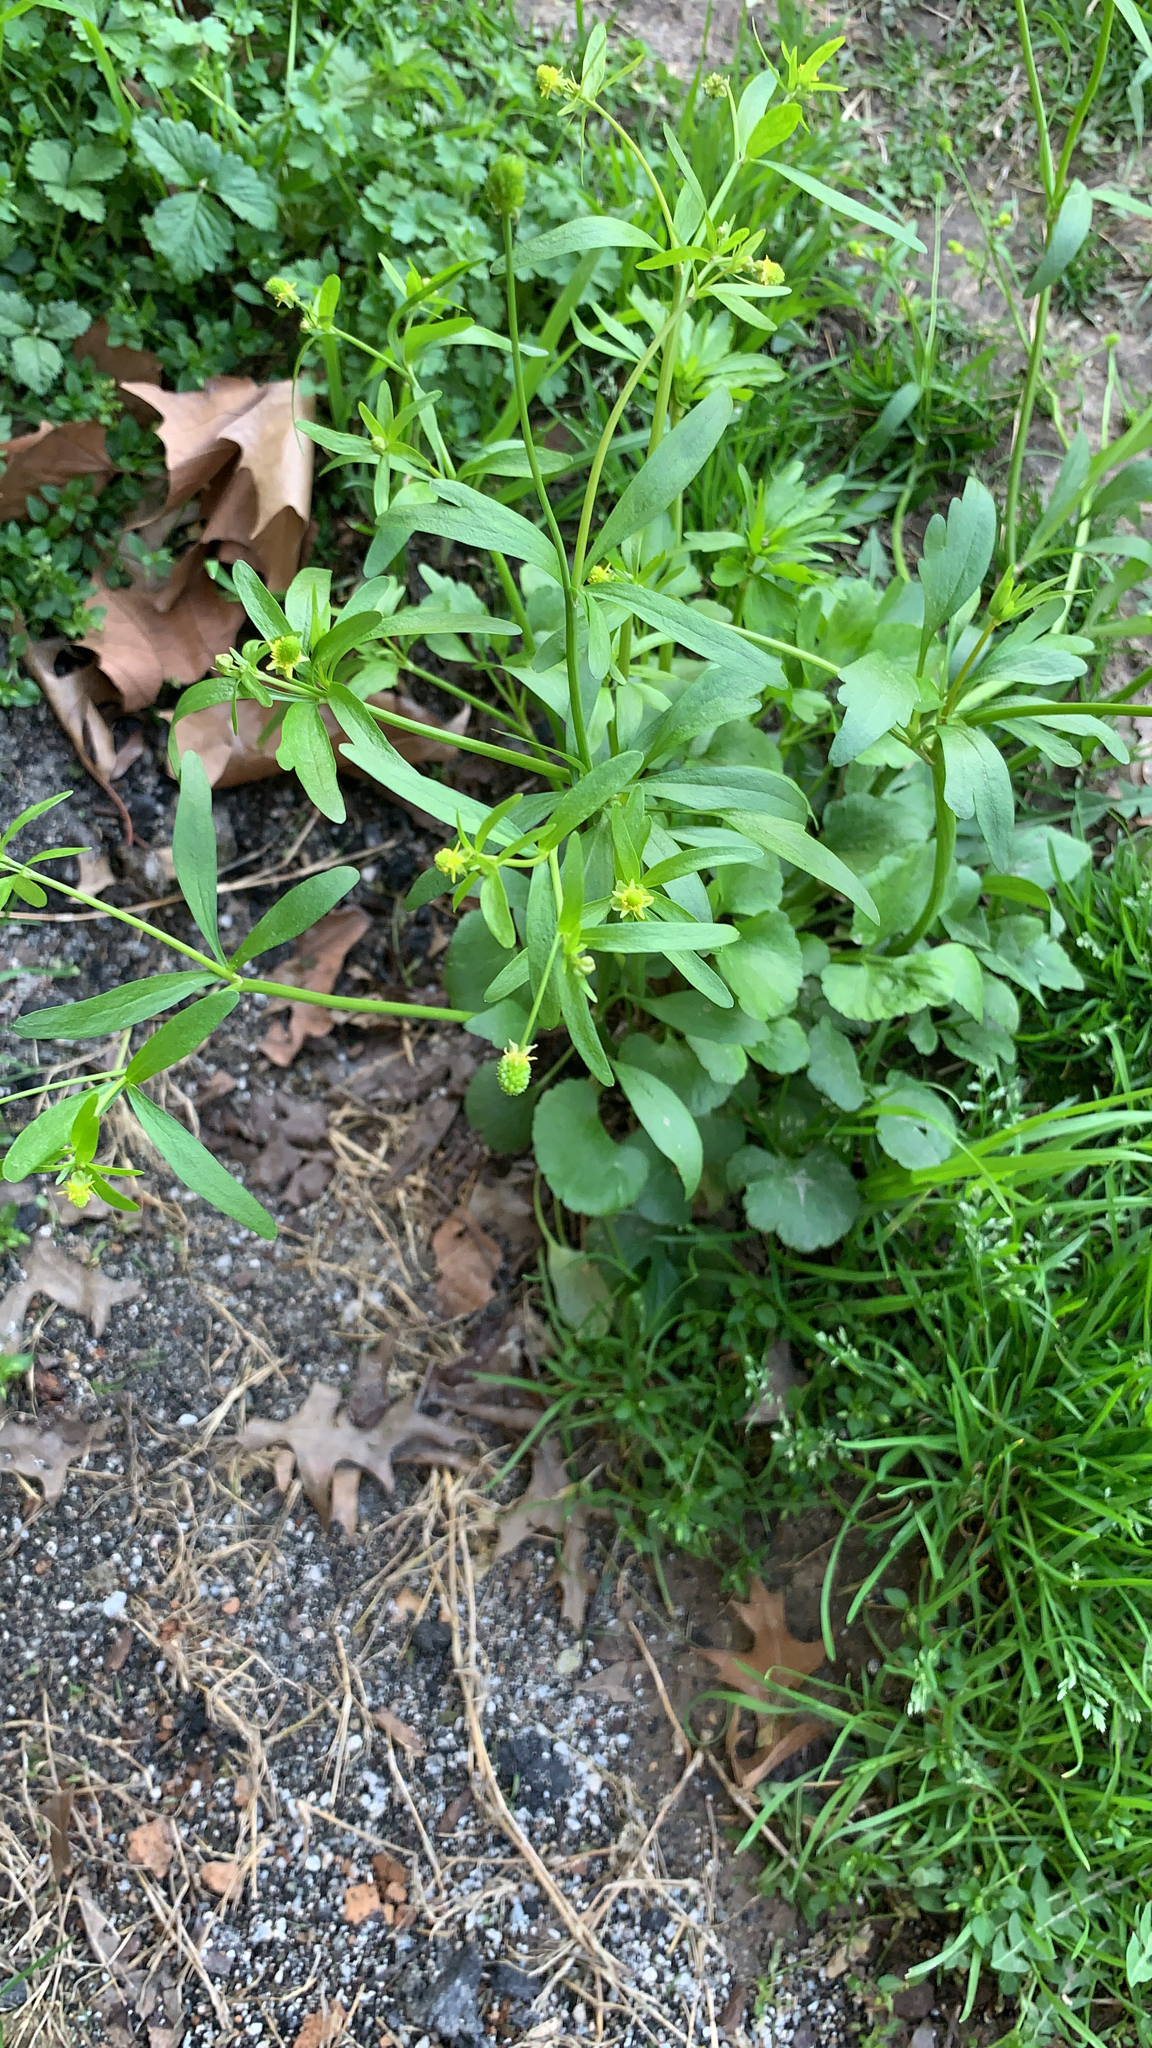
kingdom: Plantae
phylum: Tracheophyta
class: Magnoliopsida
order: Ranunculales
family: Ranunculaceae
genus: Ranunculus
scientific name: Ranunculus abortivus
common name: Early wood buttercup
